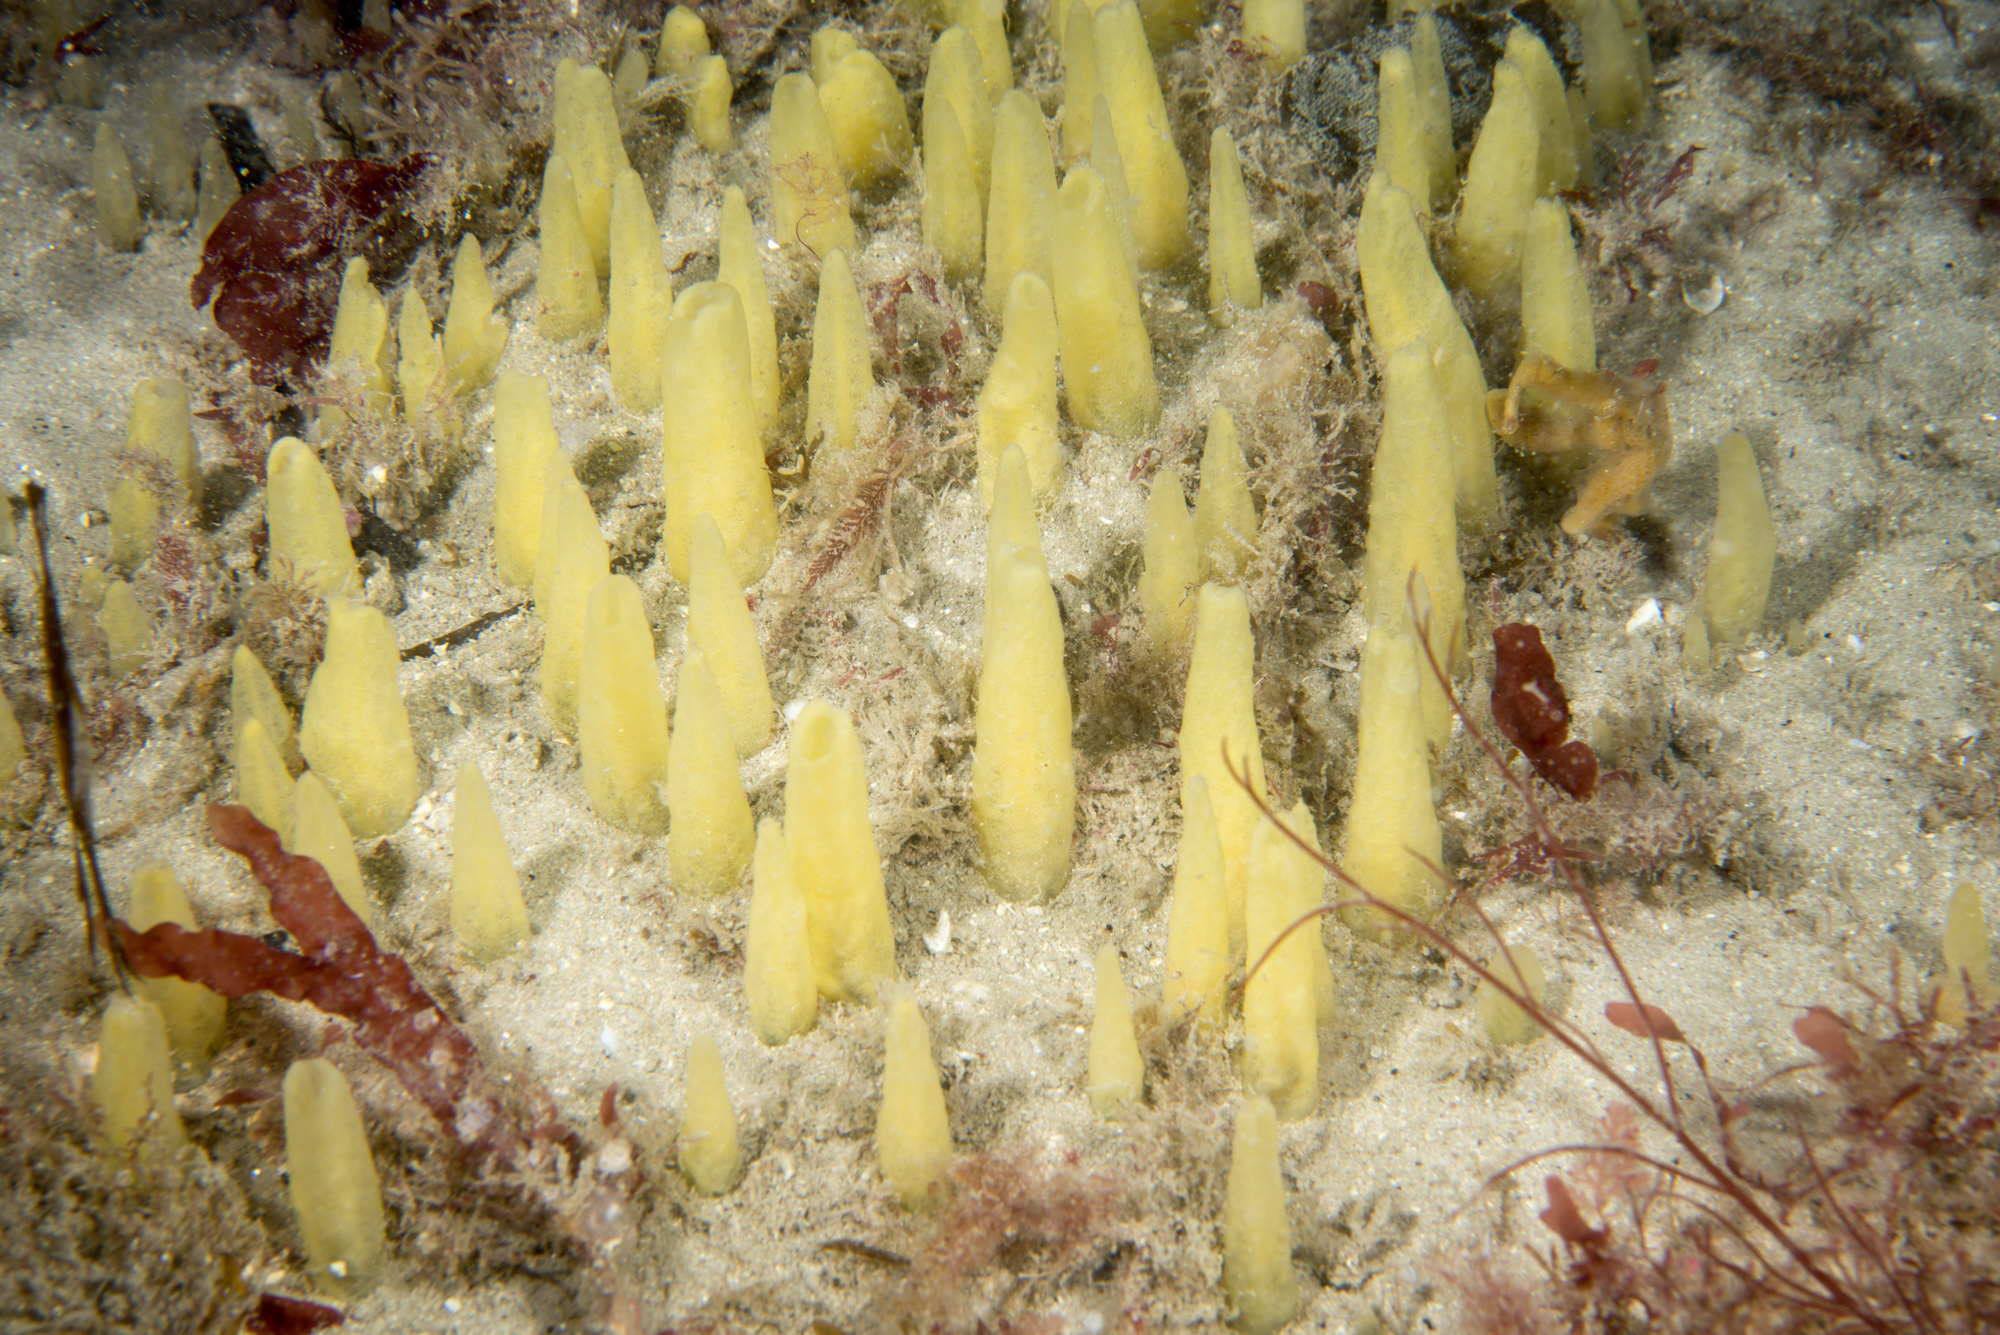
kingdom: Animalia
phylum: Porifera
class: Demospongiae
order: Suberitida
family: Halichondriidae
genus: Ciocalypta
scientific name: Ciocalypta penicillus
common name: Brush sponge
